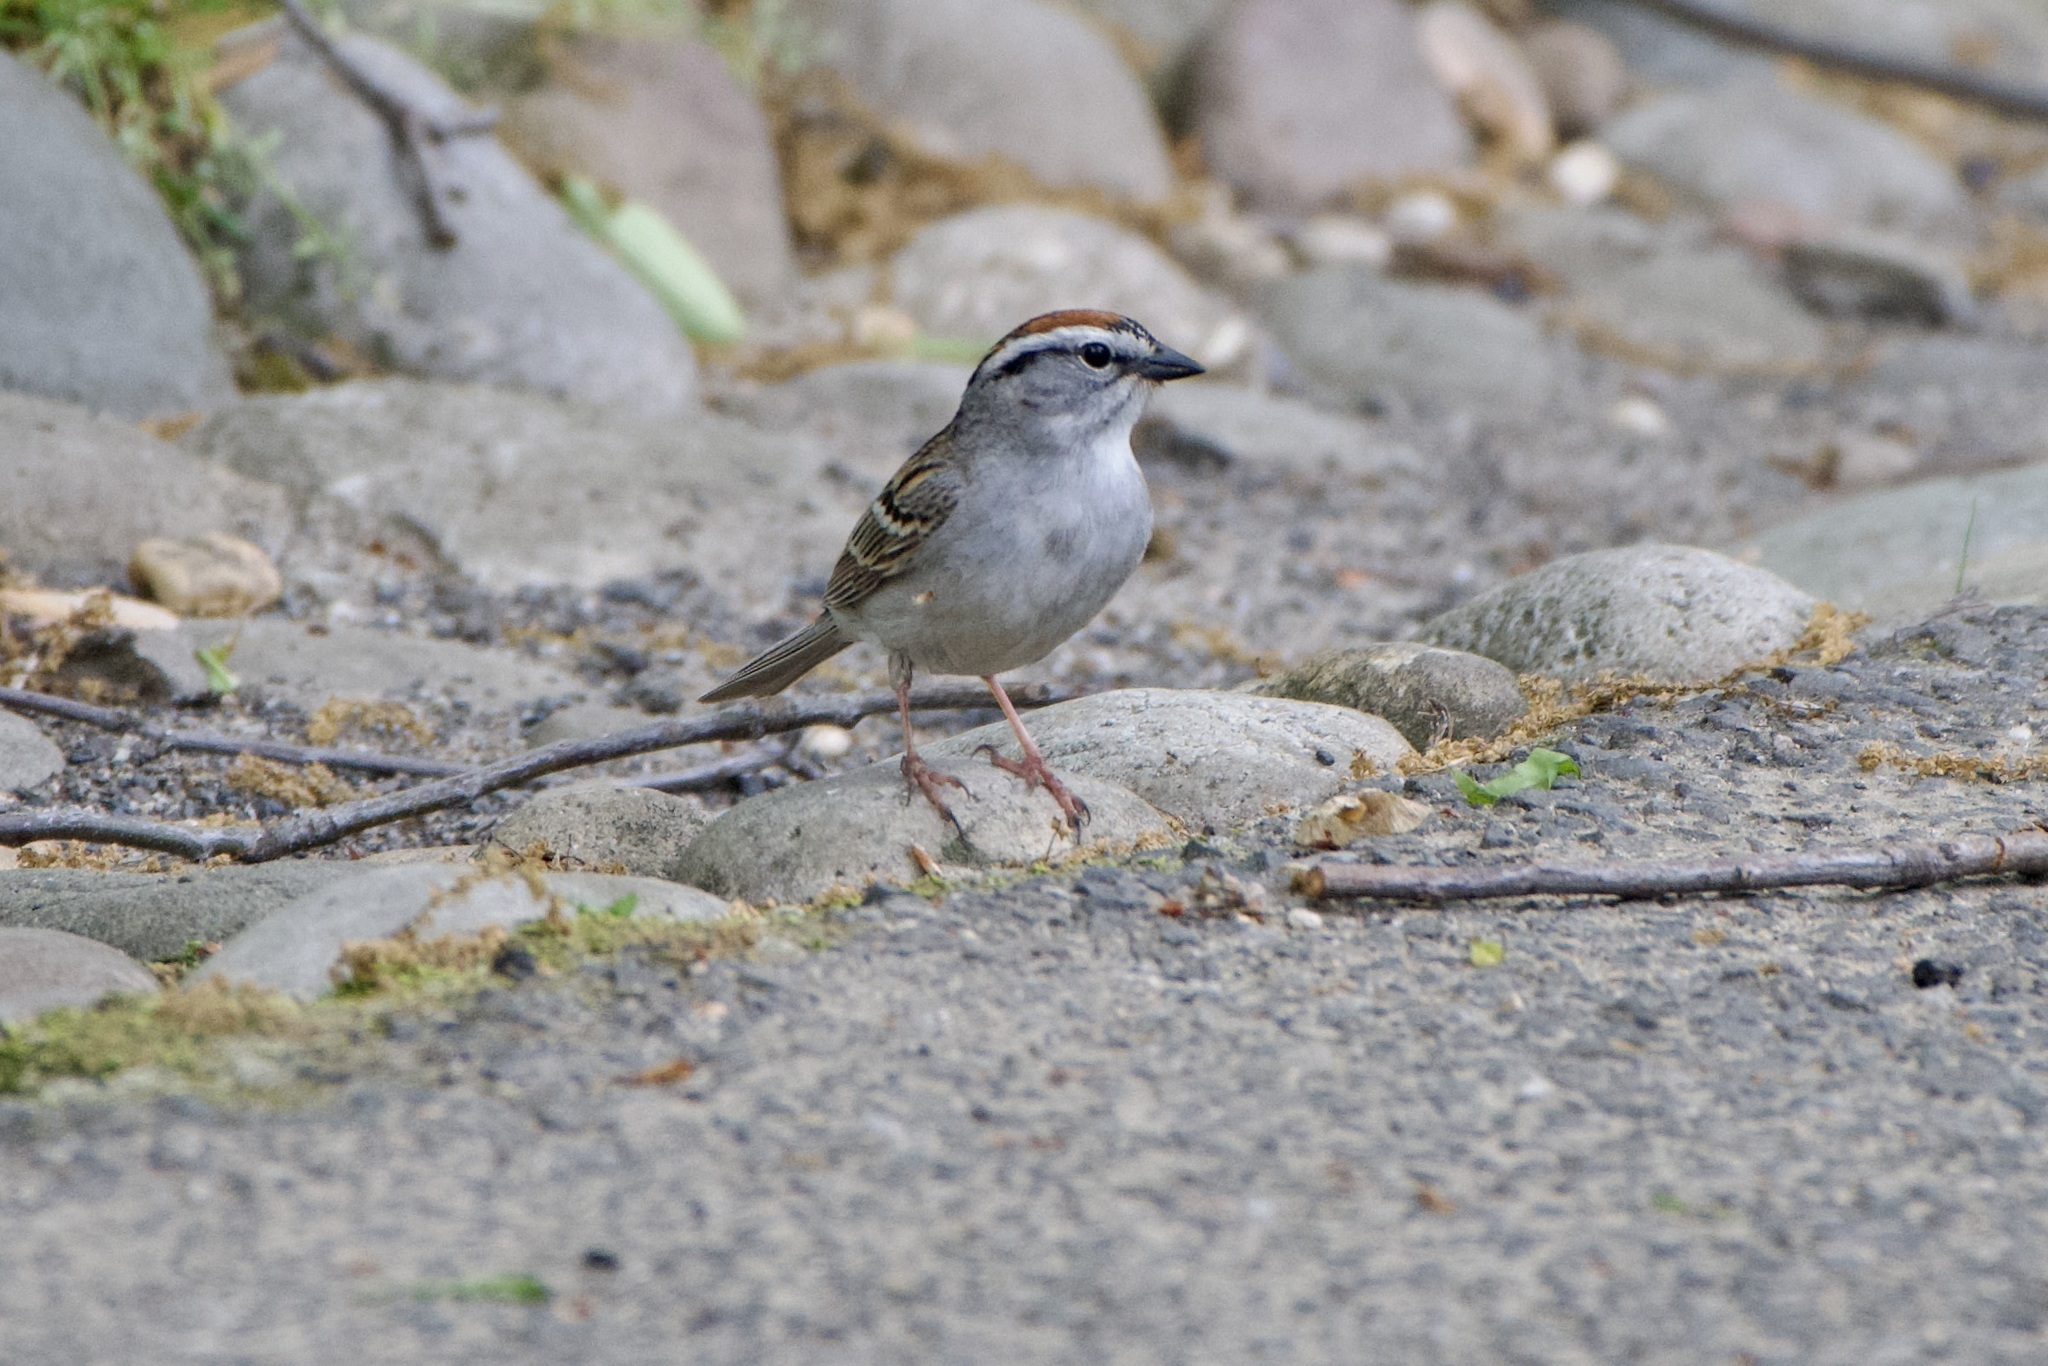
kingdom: Animalia
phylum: Chordata
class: Aves
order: Passeriformes
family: Passerellidae
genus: Spizella
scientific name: Spizella passerina
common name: Chipping sparrow
